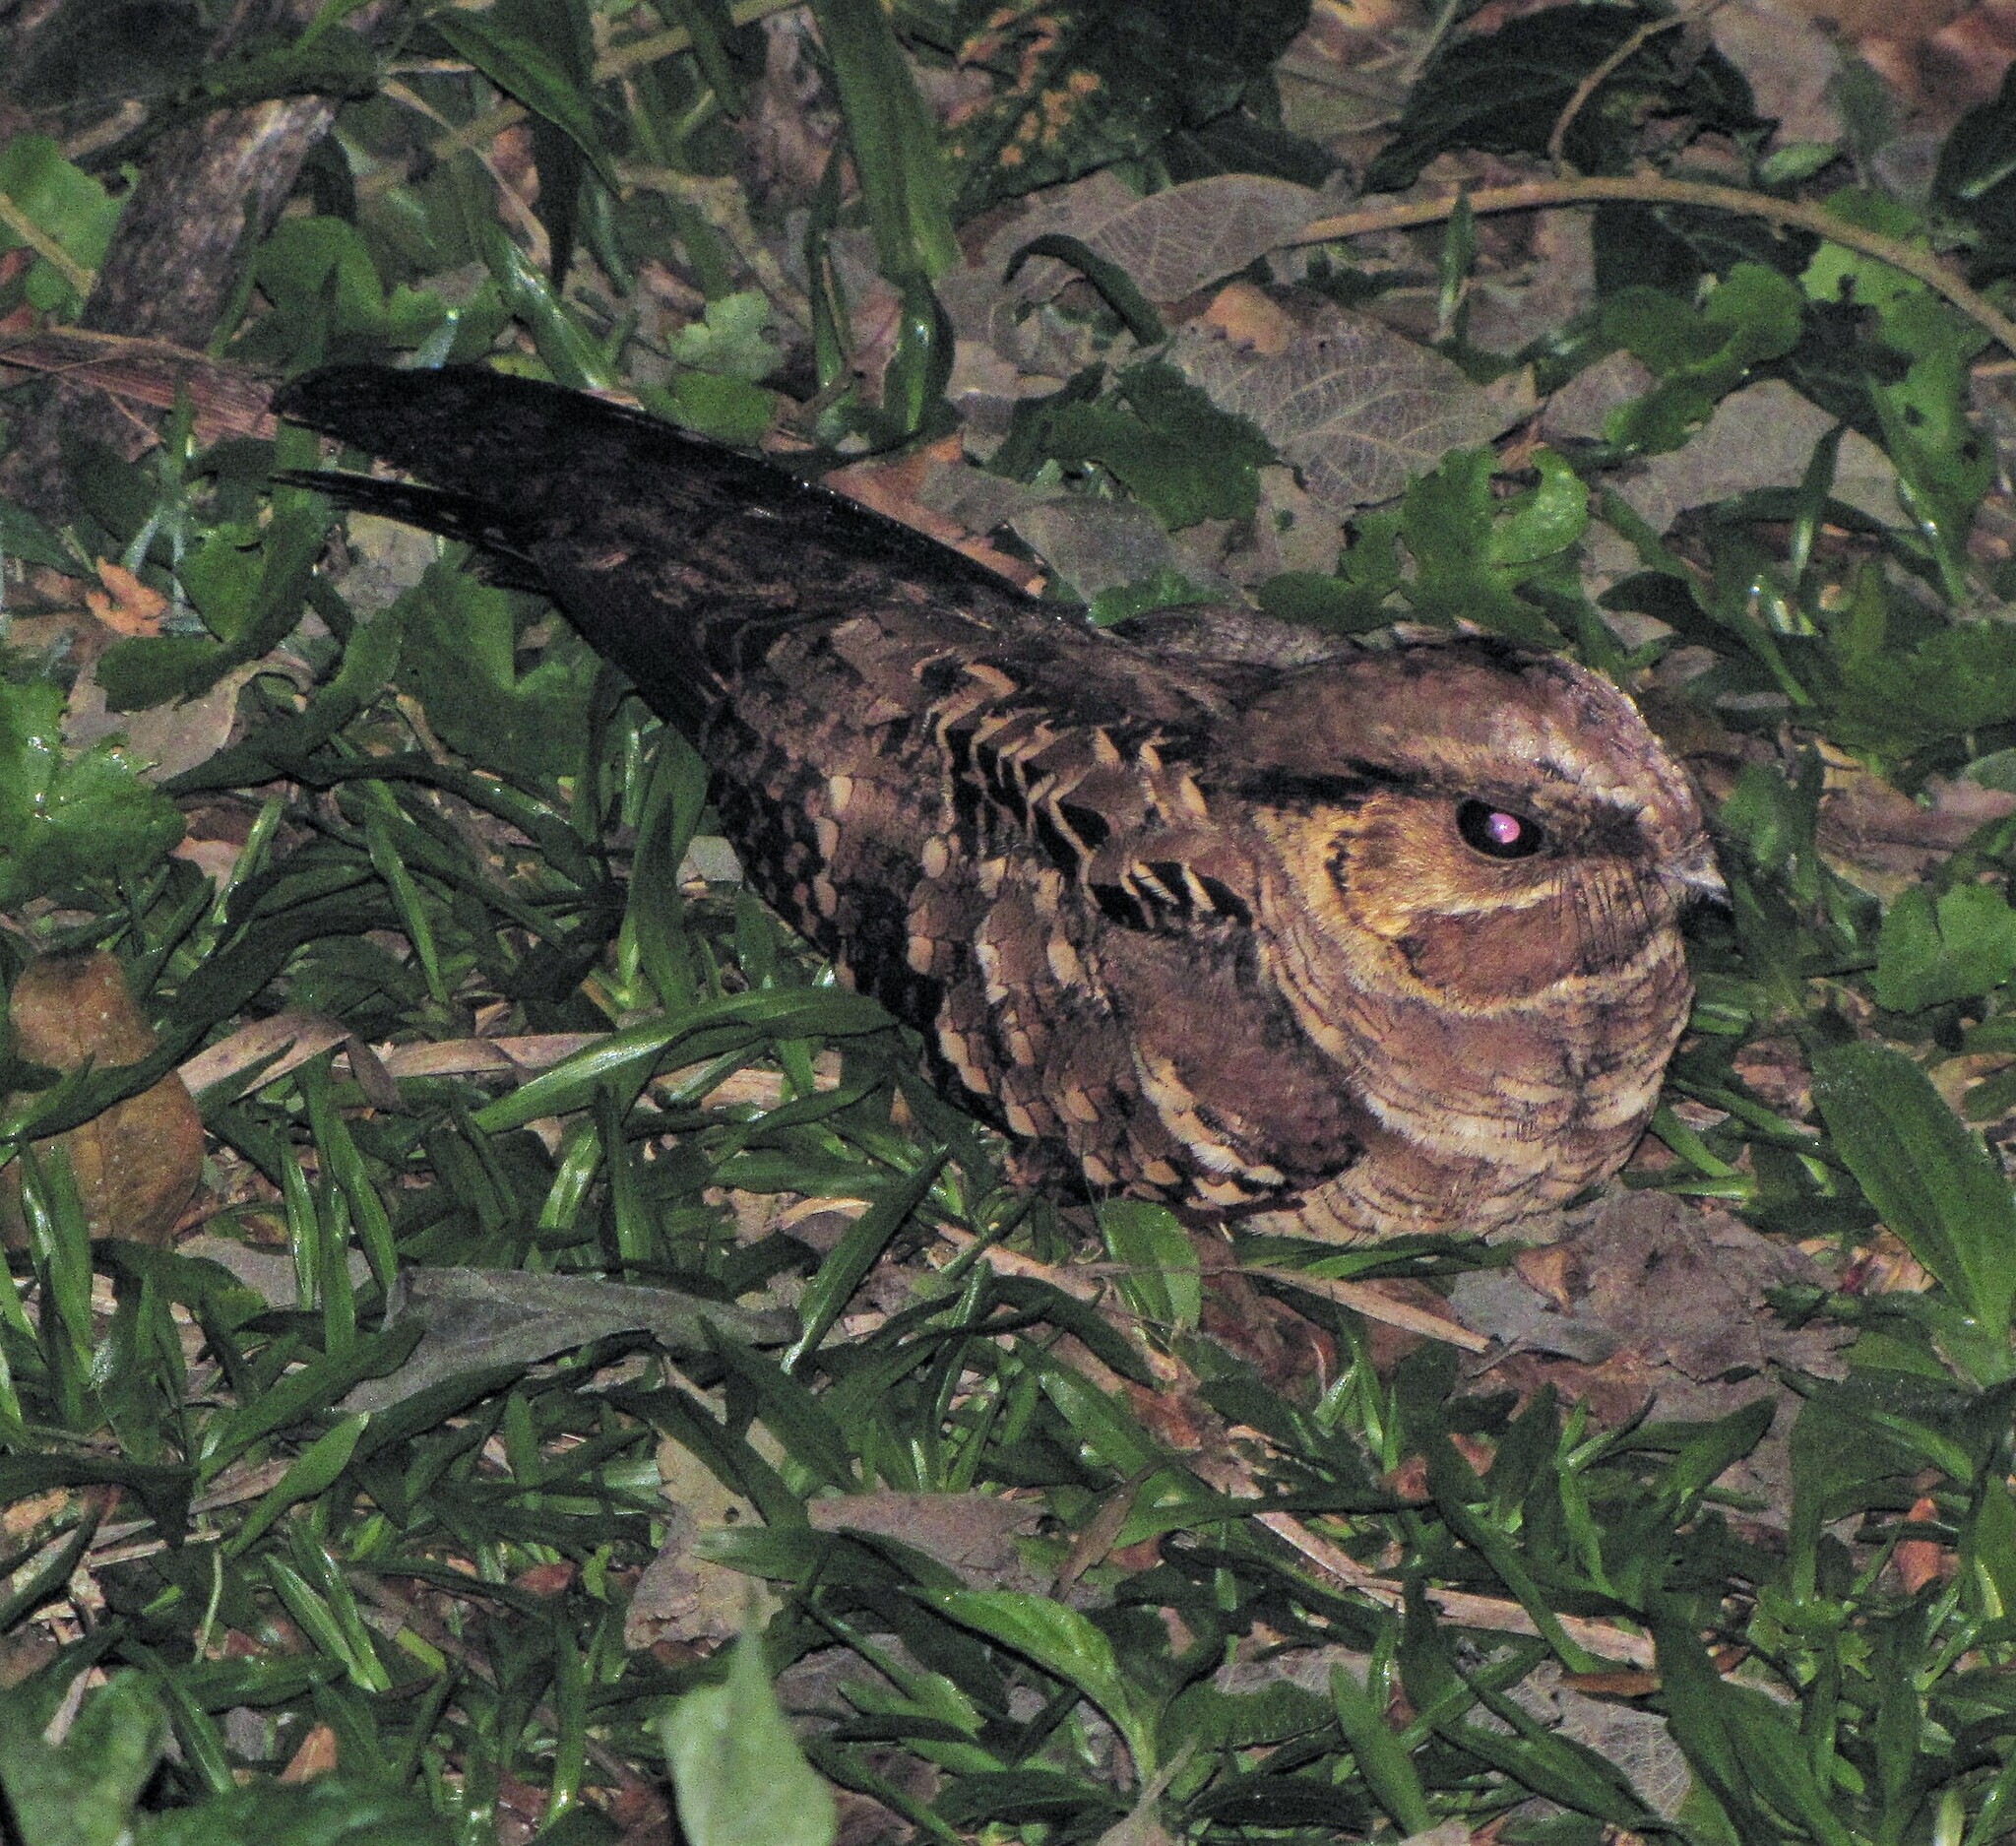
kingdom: Animalia
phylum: Chordata
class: Aves
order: Caprimulgiformes
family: Caprimulgidae
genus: Nyctidromus
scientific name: Nyctidromus albicollis
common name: Pauraque
